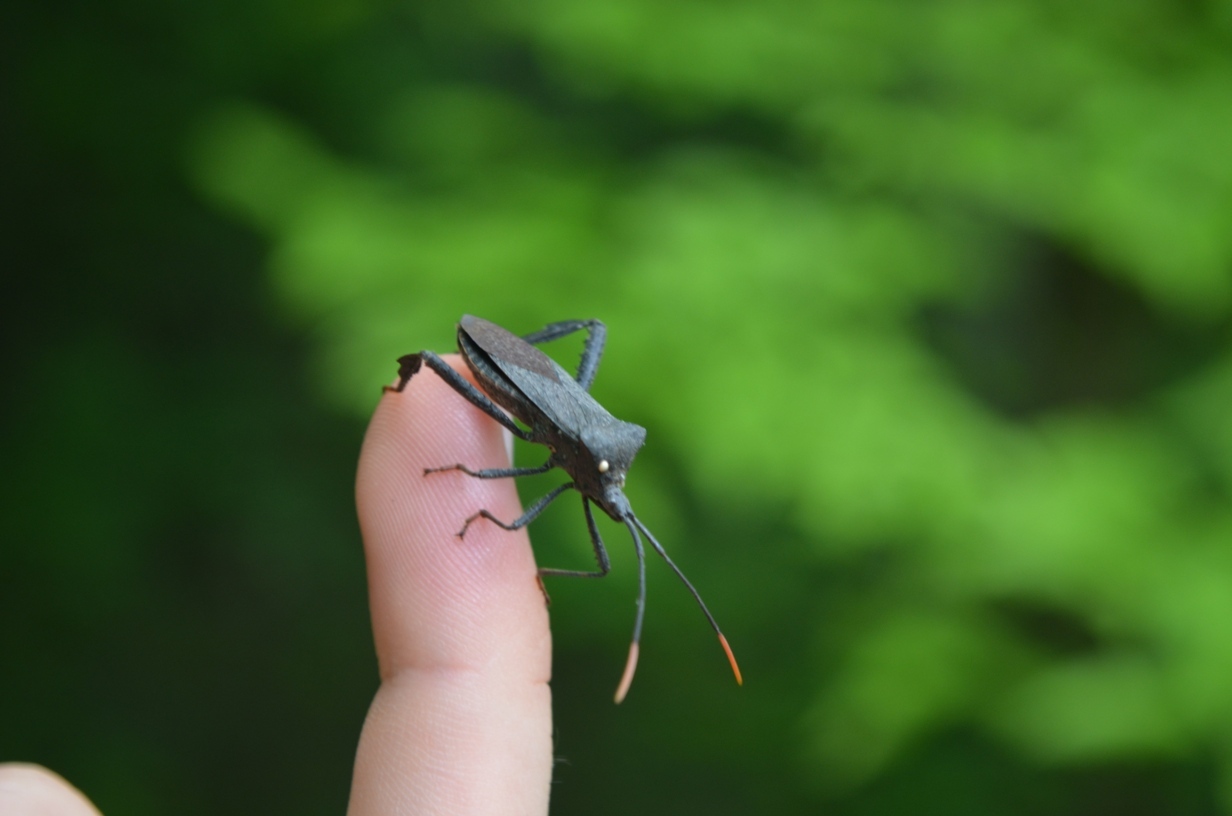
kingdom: Animalia
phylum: Arthropoda
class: Insecta
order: Hemiptera
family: Coreidae
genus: Acanthocephala
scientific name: Acanthocephala terminalis
